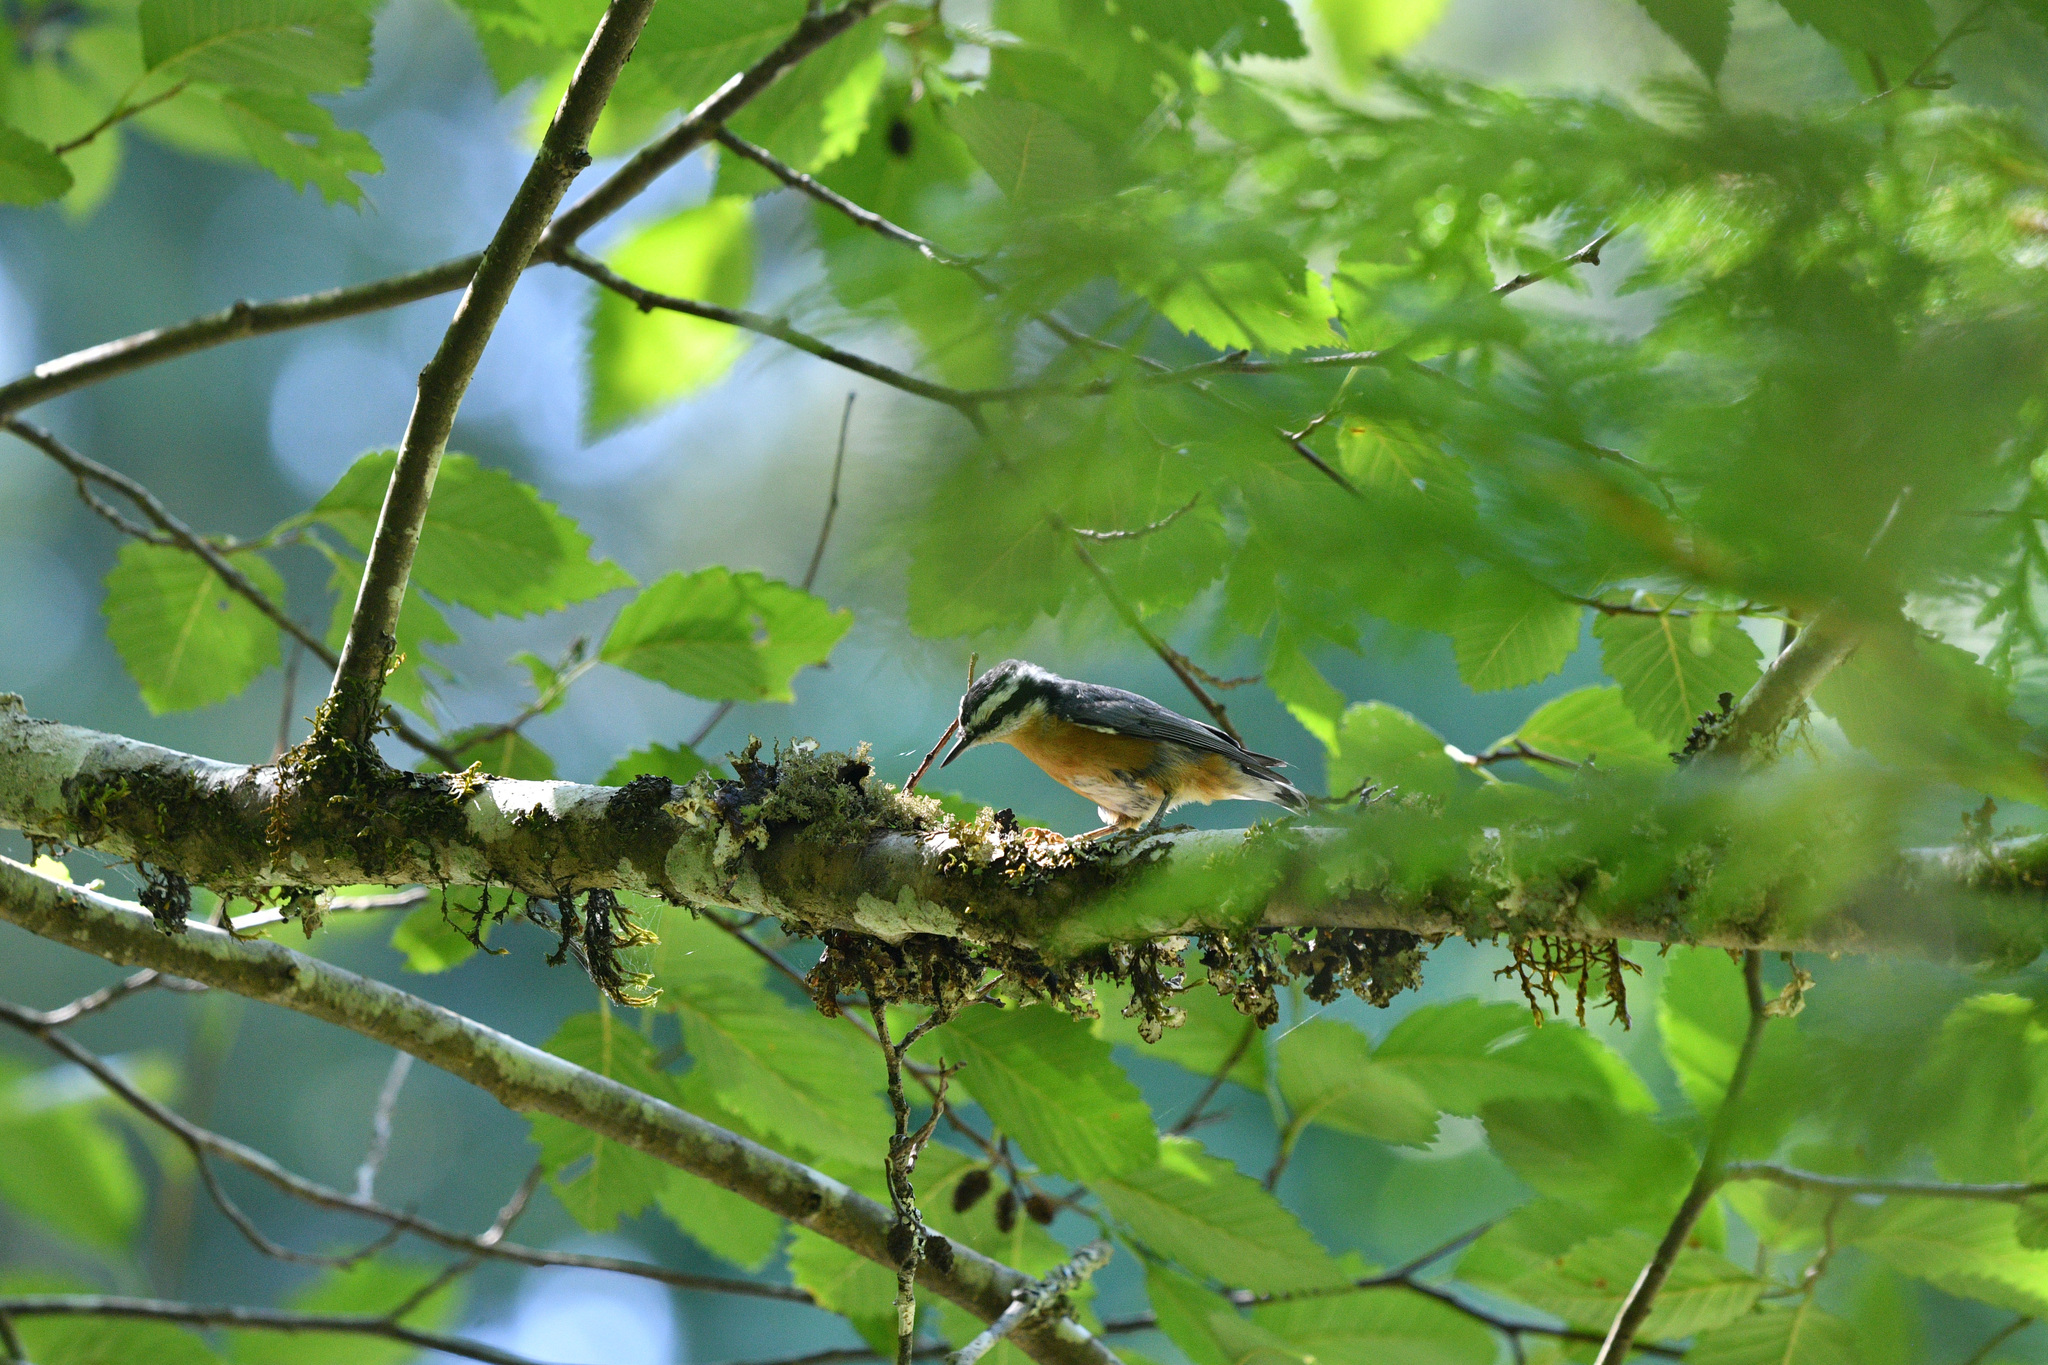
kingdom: Animalia
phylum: Chordata
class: Aves
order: Passeriformes
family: Sittidae
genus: Sitta
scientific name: Sitta canadensis
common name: Red-breasted nuthatch
